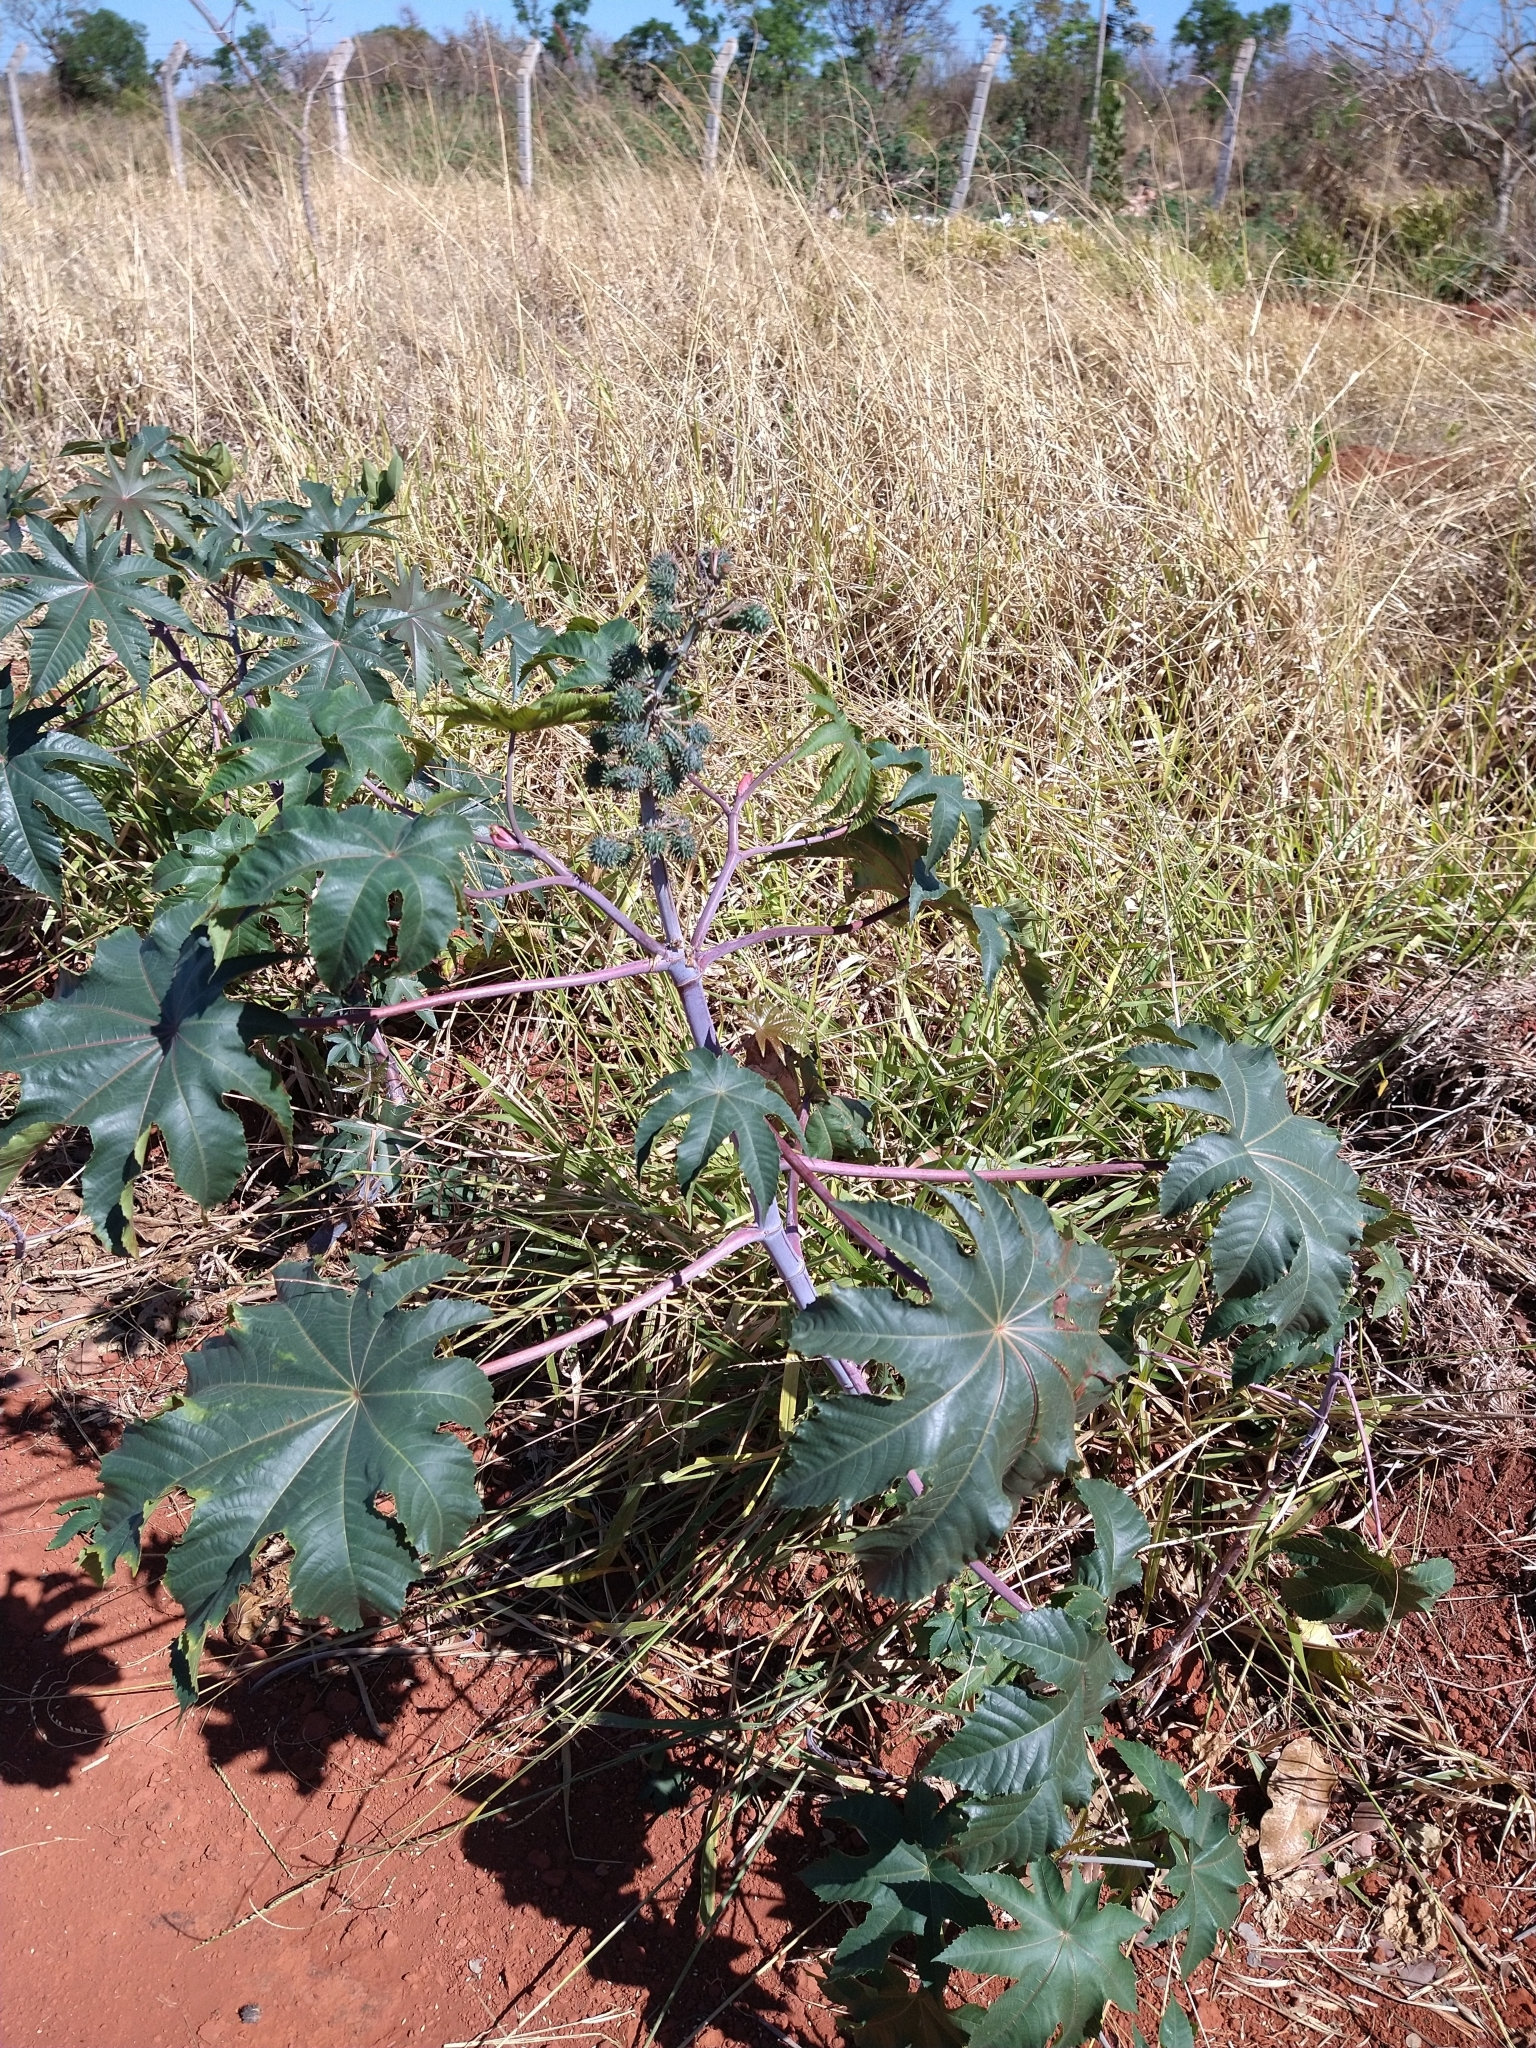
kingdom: Plantae
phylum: Tracheophyta
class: Magnoliopsida
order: Malpighiales
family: Euphorbiaceae
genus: Ricinus
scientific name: Ricinus communis
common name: Castor-oil-plant
